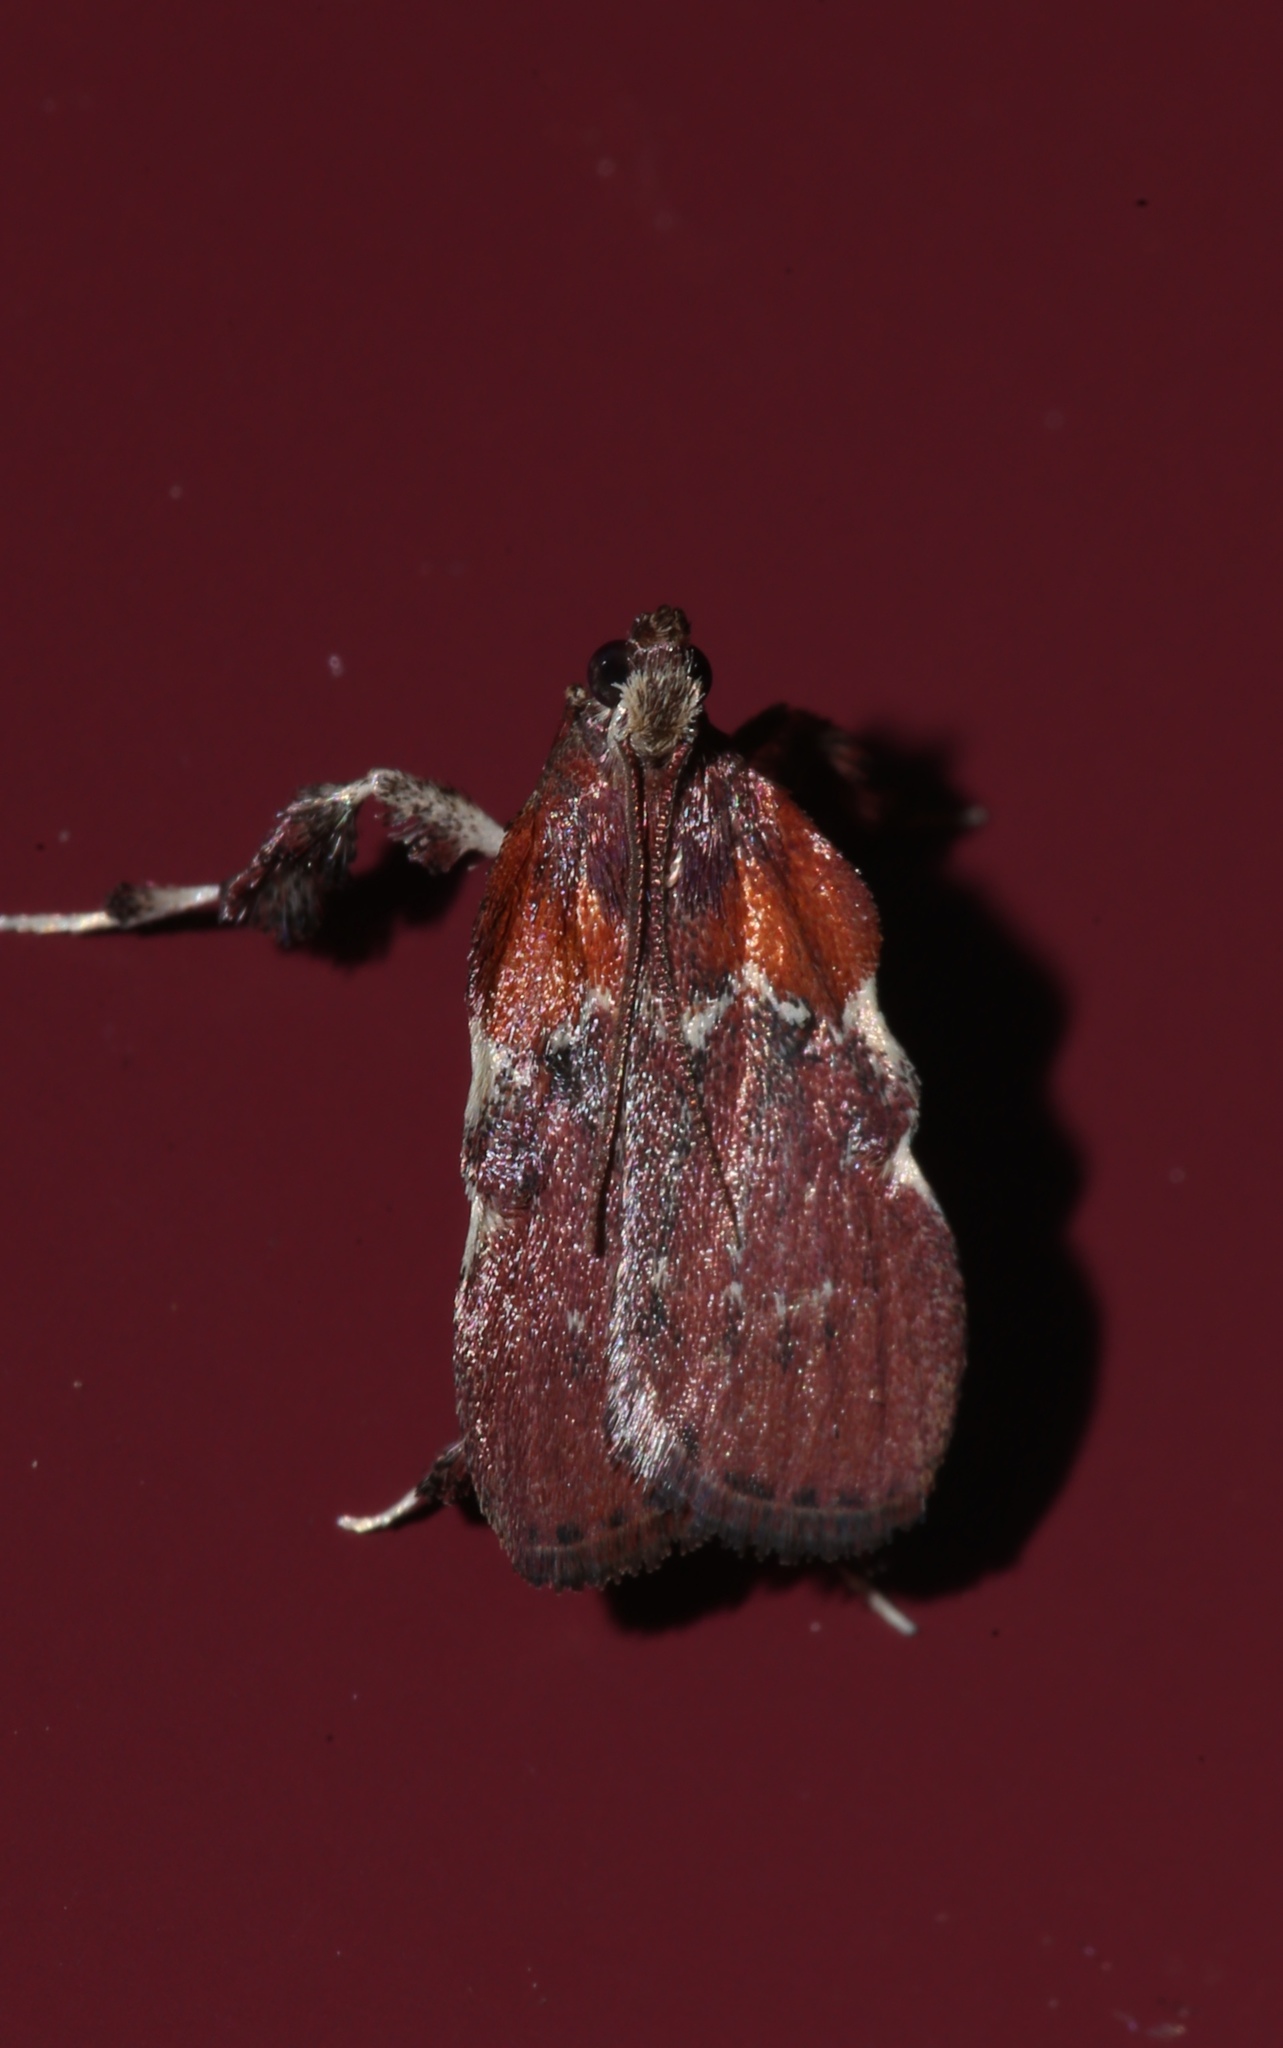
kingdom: Animalia
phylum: Arthropoda
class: Insecta
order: Lepidoptera
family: Pyralidae
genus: Galasa
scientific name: Galasa nigrinodis
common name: Boxwood leaftier moth
